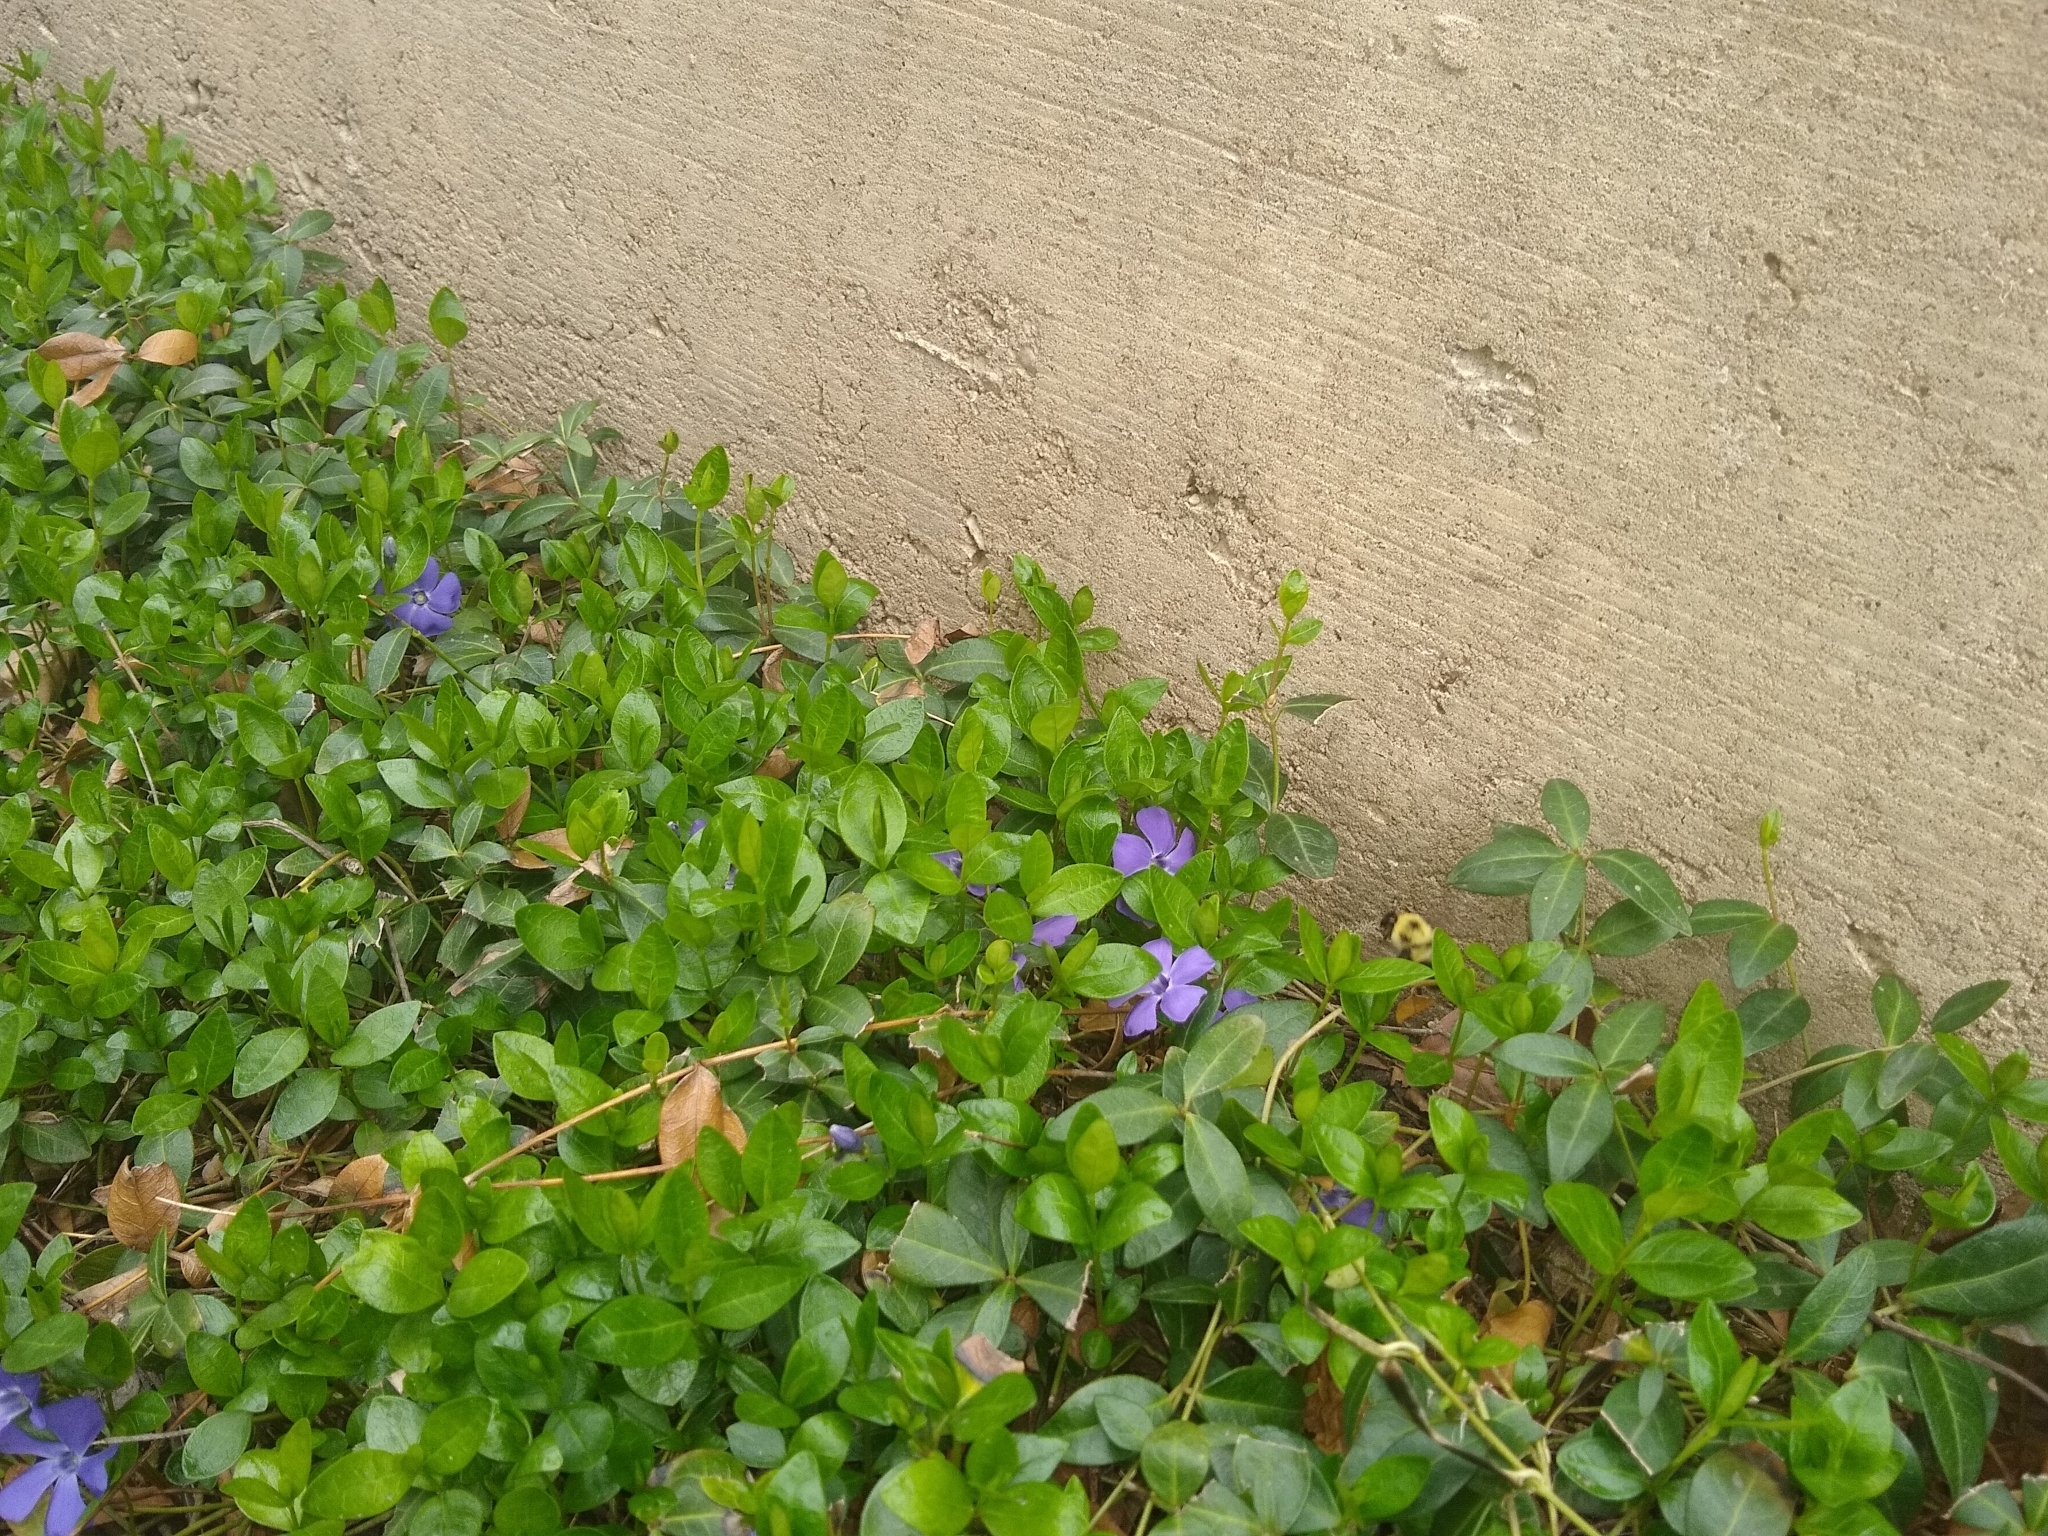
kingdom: Animalia
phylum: Arthropoda
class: Insecta
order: Hymenoptera
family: Apidae
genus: Bombus
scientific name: Bombus bimaculatus
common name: Two-spotted bumble bee
